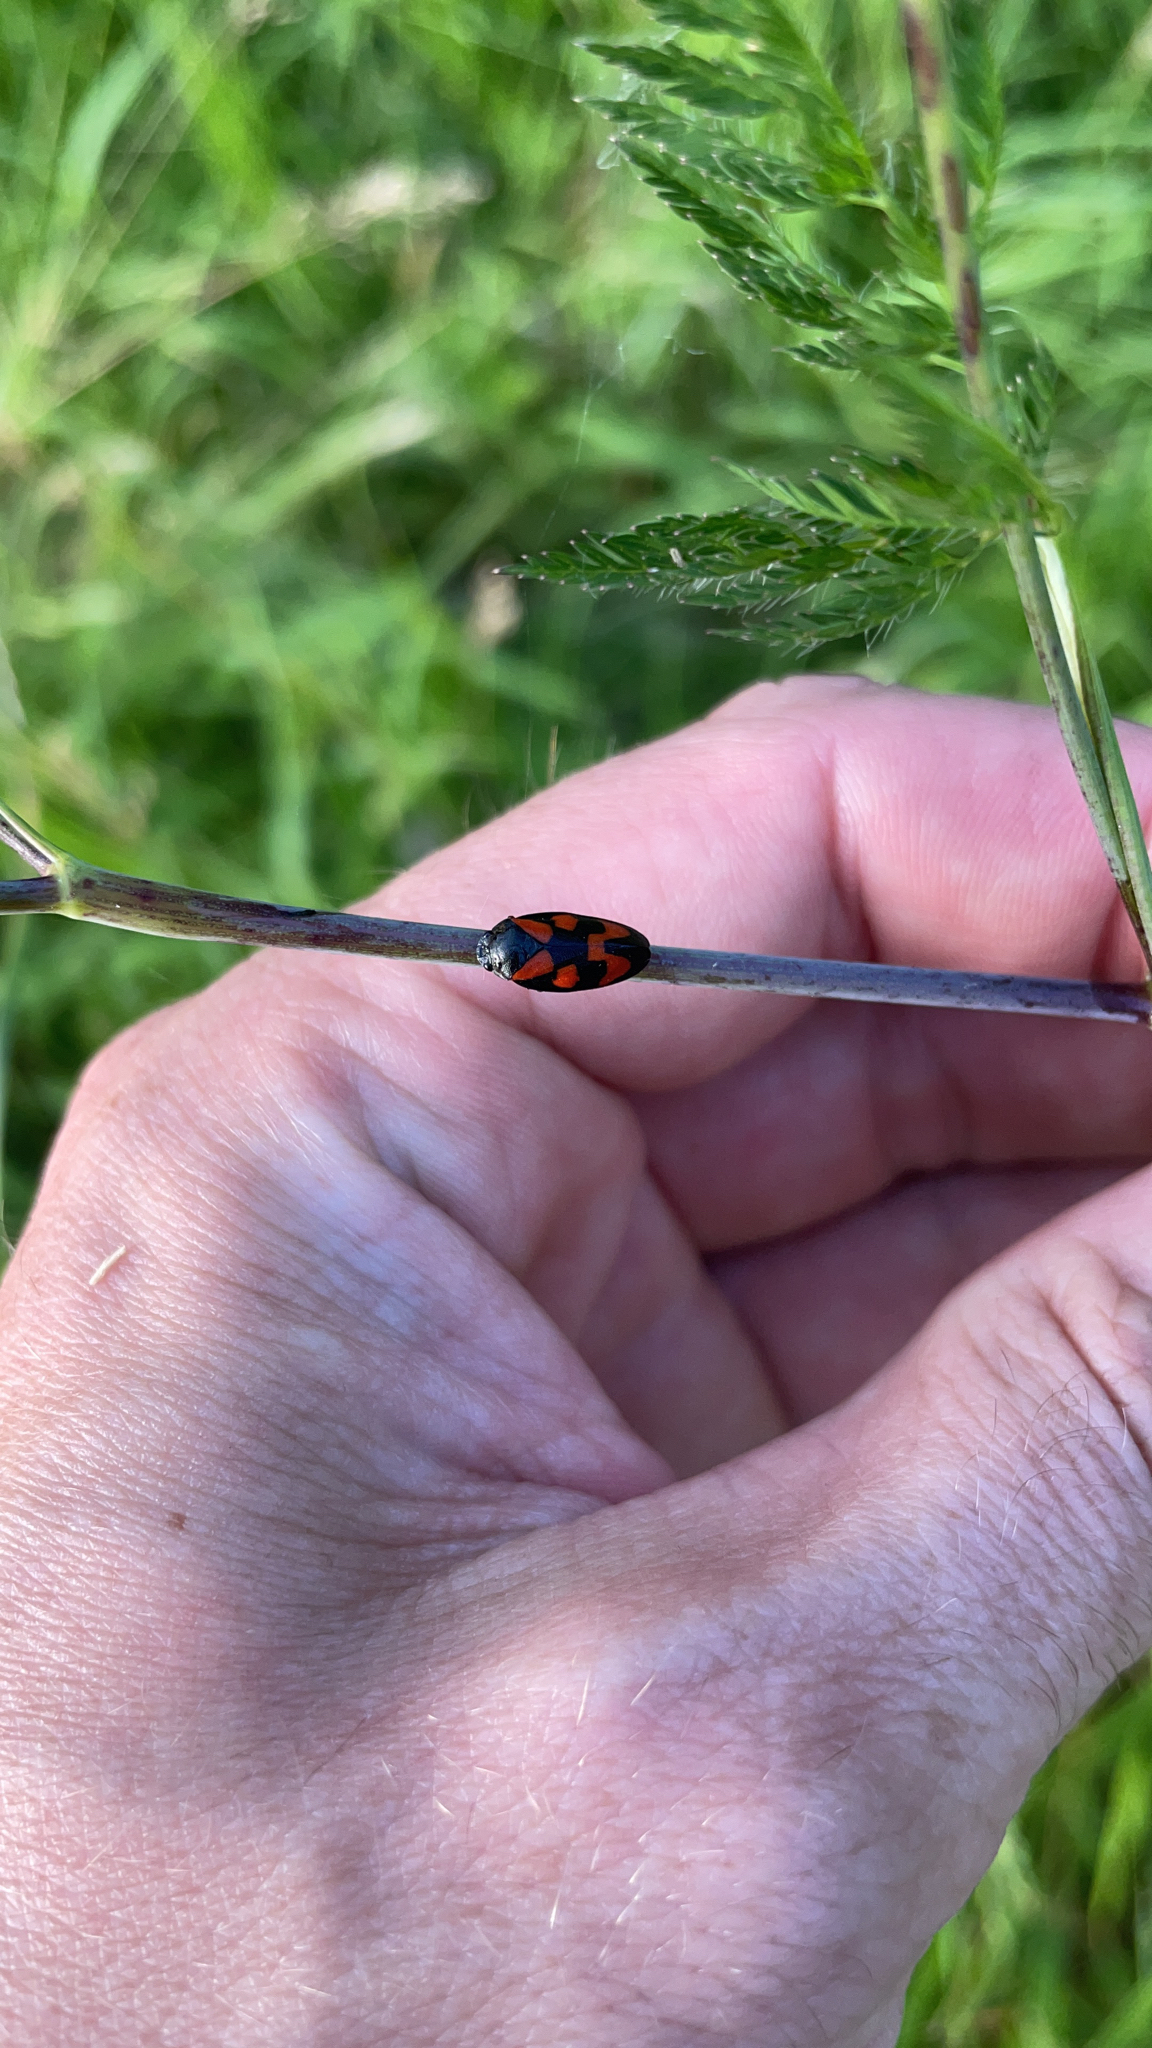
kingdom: Animalia
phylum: Arthropoda
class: Insecta
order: Hemiptera
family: Cercopidae
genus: Cercopis
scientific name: Cercopis vulnerata
